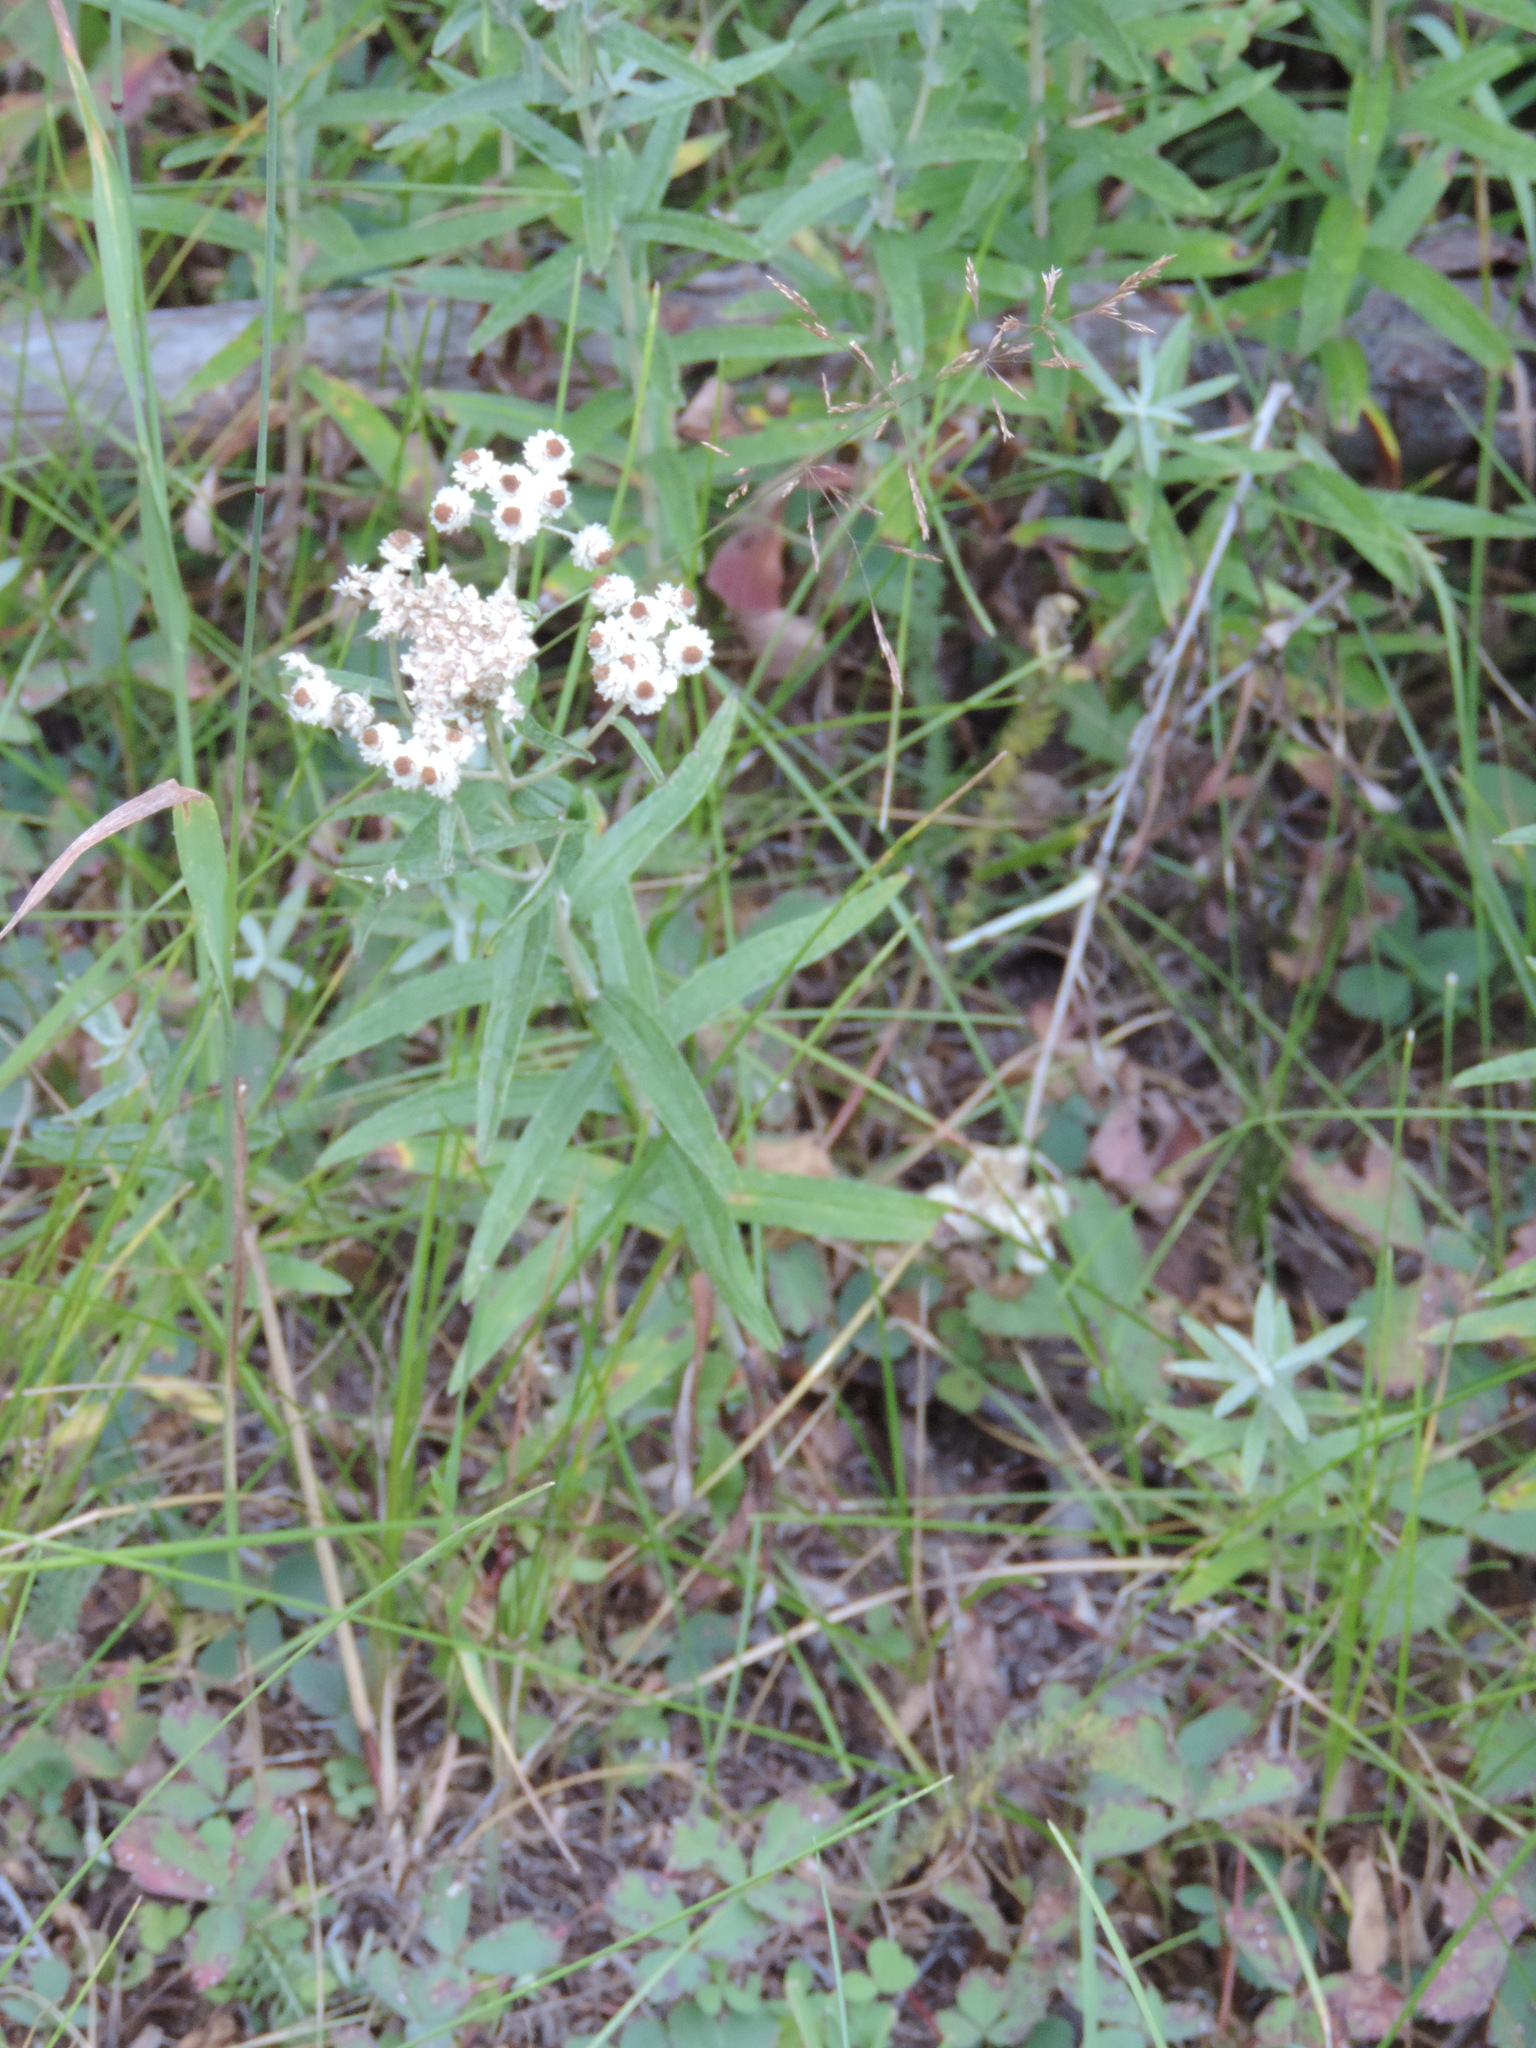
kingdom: Plantae
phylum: Tracheophyta
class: Magnoliopsida
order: Asterales
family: Asteraceae
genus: Anaphalis
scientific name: Anaphalis margaritacea
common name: Pearly everlasting
